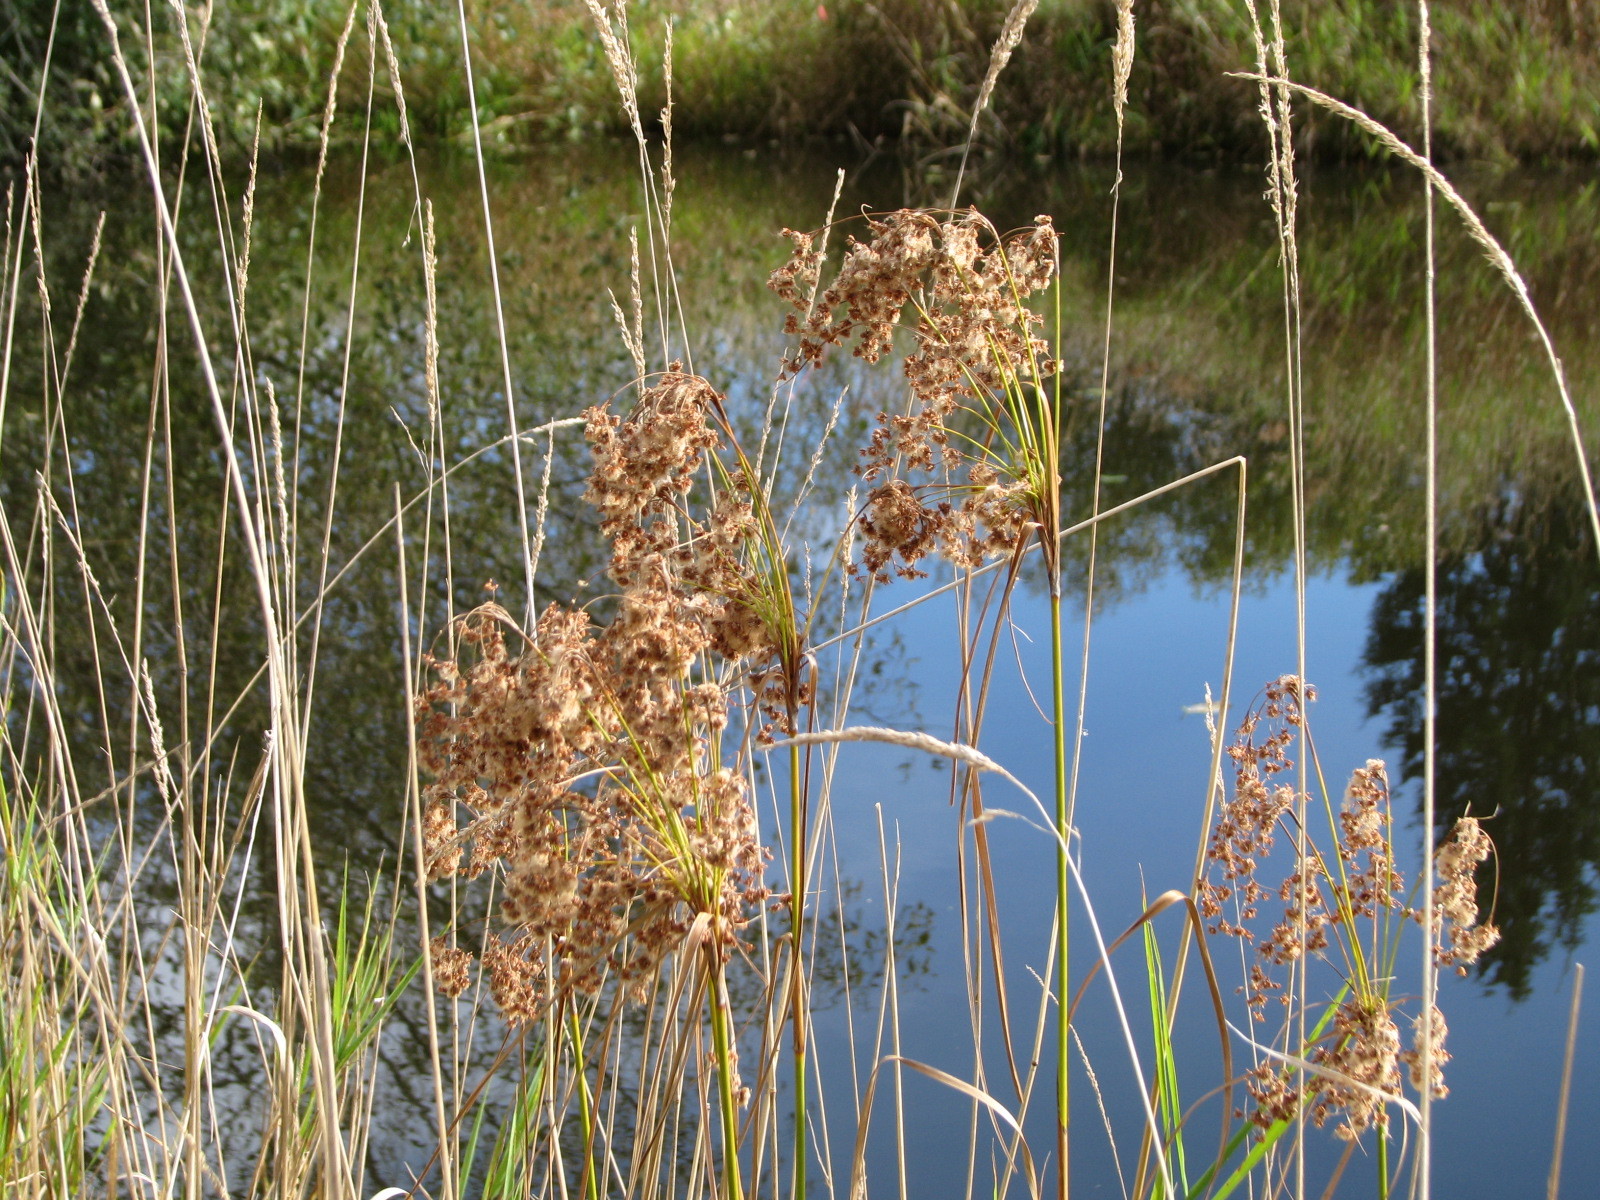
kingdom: Plantae
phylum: Tracheophyta
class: Liliopsida
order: Poales
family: Cyperaceae
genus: Scirpus
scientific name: Scirpus cyperinus
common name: Black-sheathed bulrush
